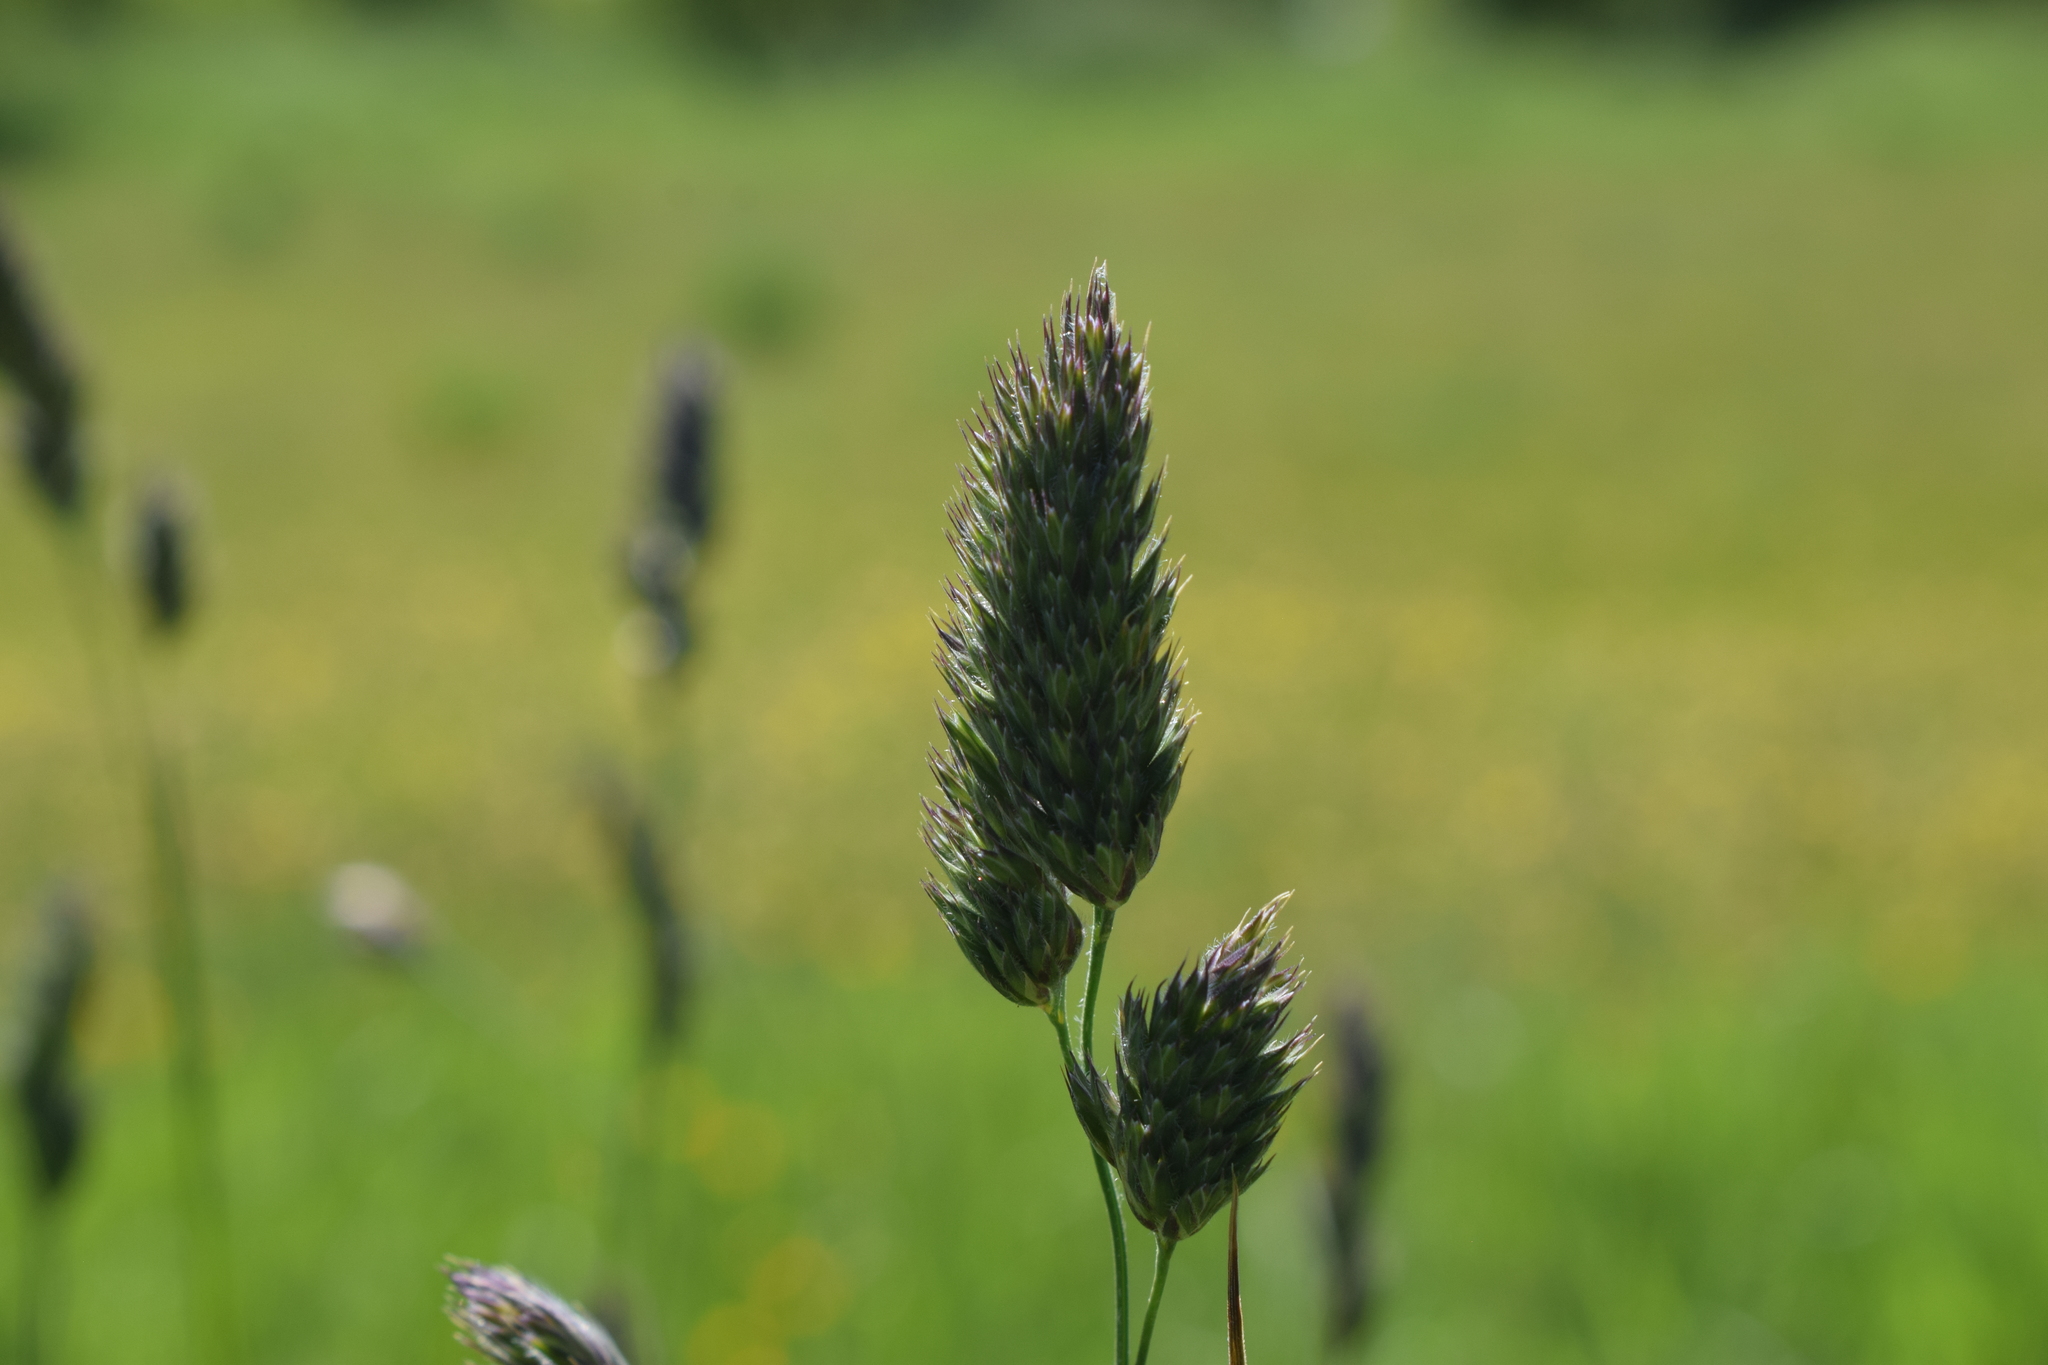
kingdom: Plantae
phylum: Tracheophyta
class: Liliopsida
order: Poales
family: Poaceae
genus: Dactylis
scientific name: Dactylis glomerata
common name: Orchardgrass
